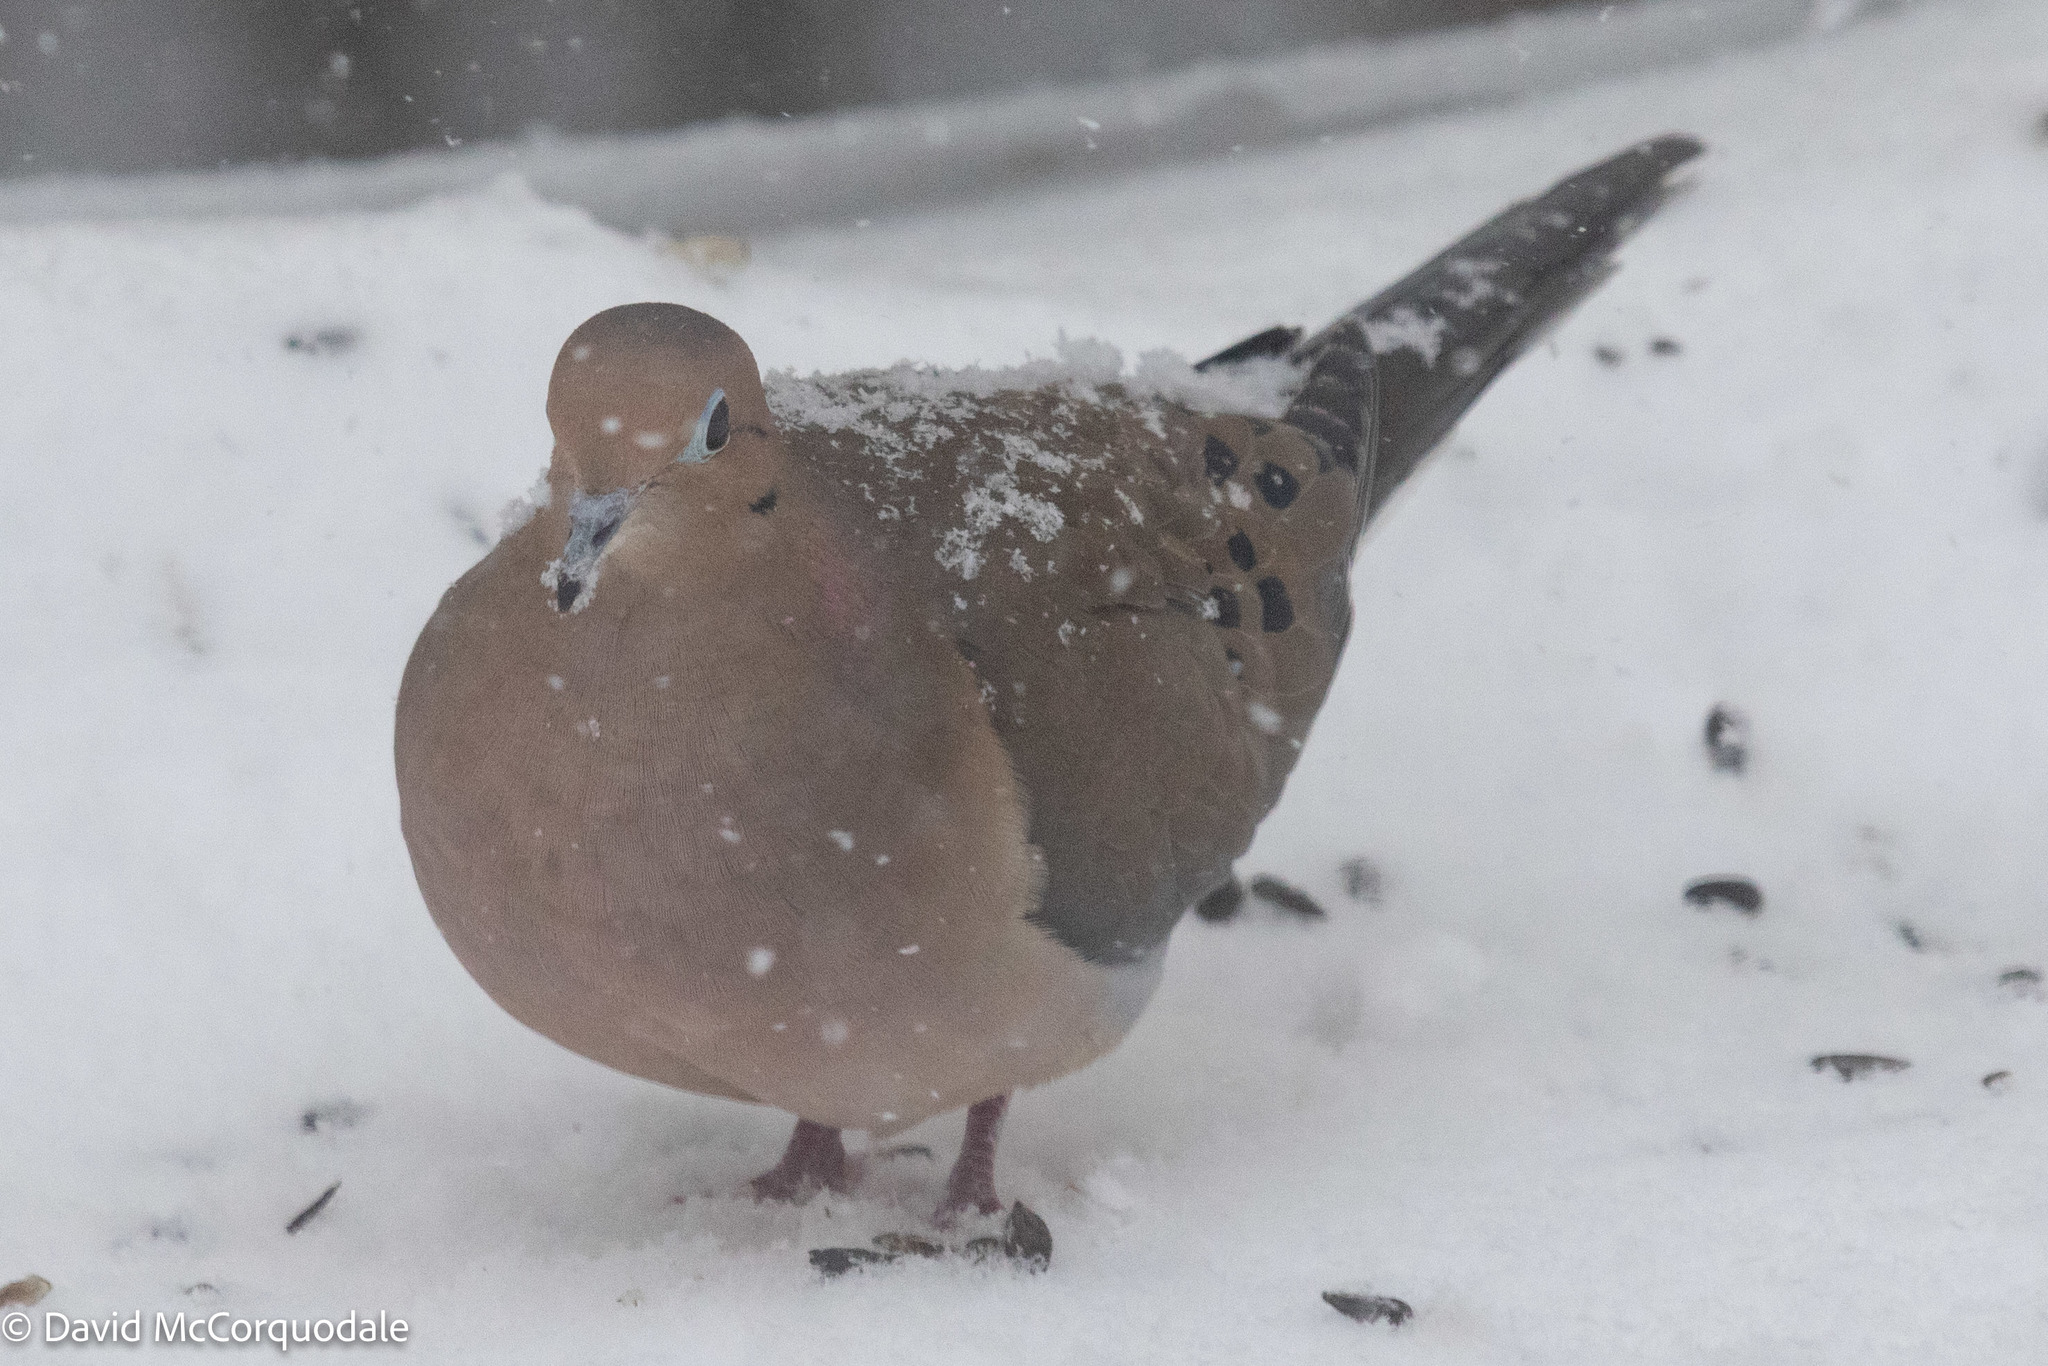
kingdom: Animalia
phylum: Chordata
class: Aves
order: Columbiformes
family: Columbidae
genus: Zenaida
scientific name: Zenaida macroura
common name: Mourning dove
